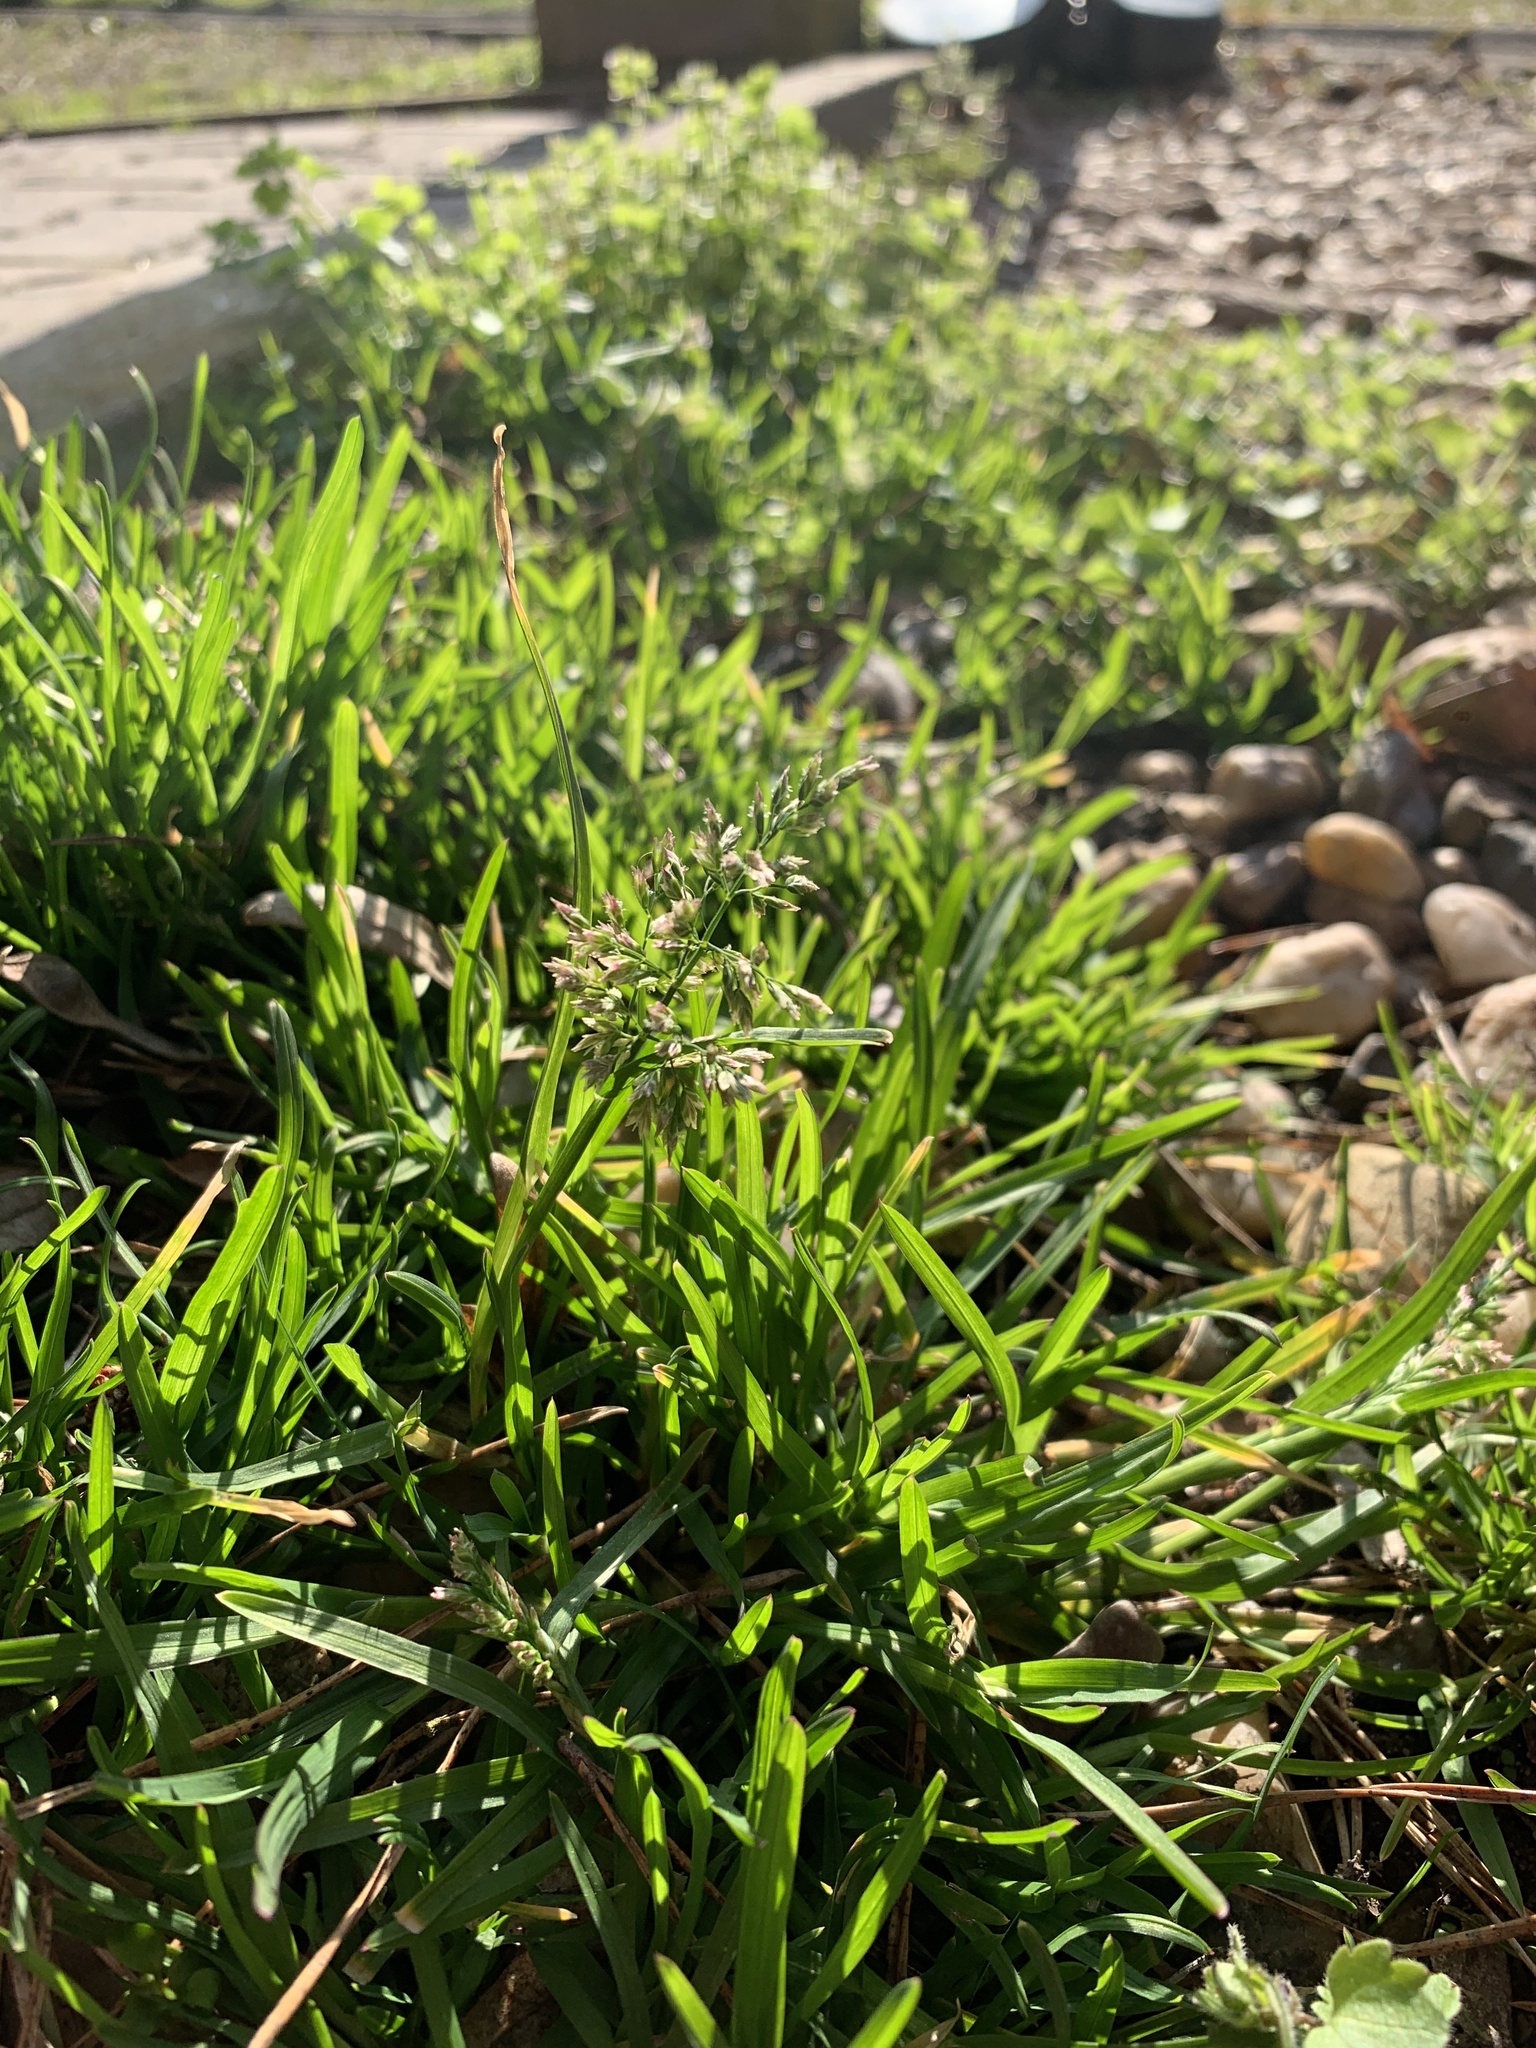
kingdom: Plantae
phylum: Tracheophyta
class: Liliopsida
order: Poales
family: Poaceae
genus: Poa
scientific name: Poa annua
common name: Annual bluegrass
